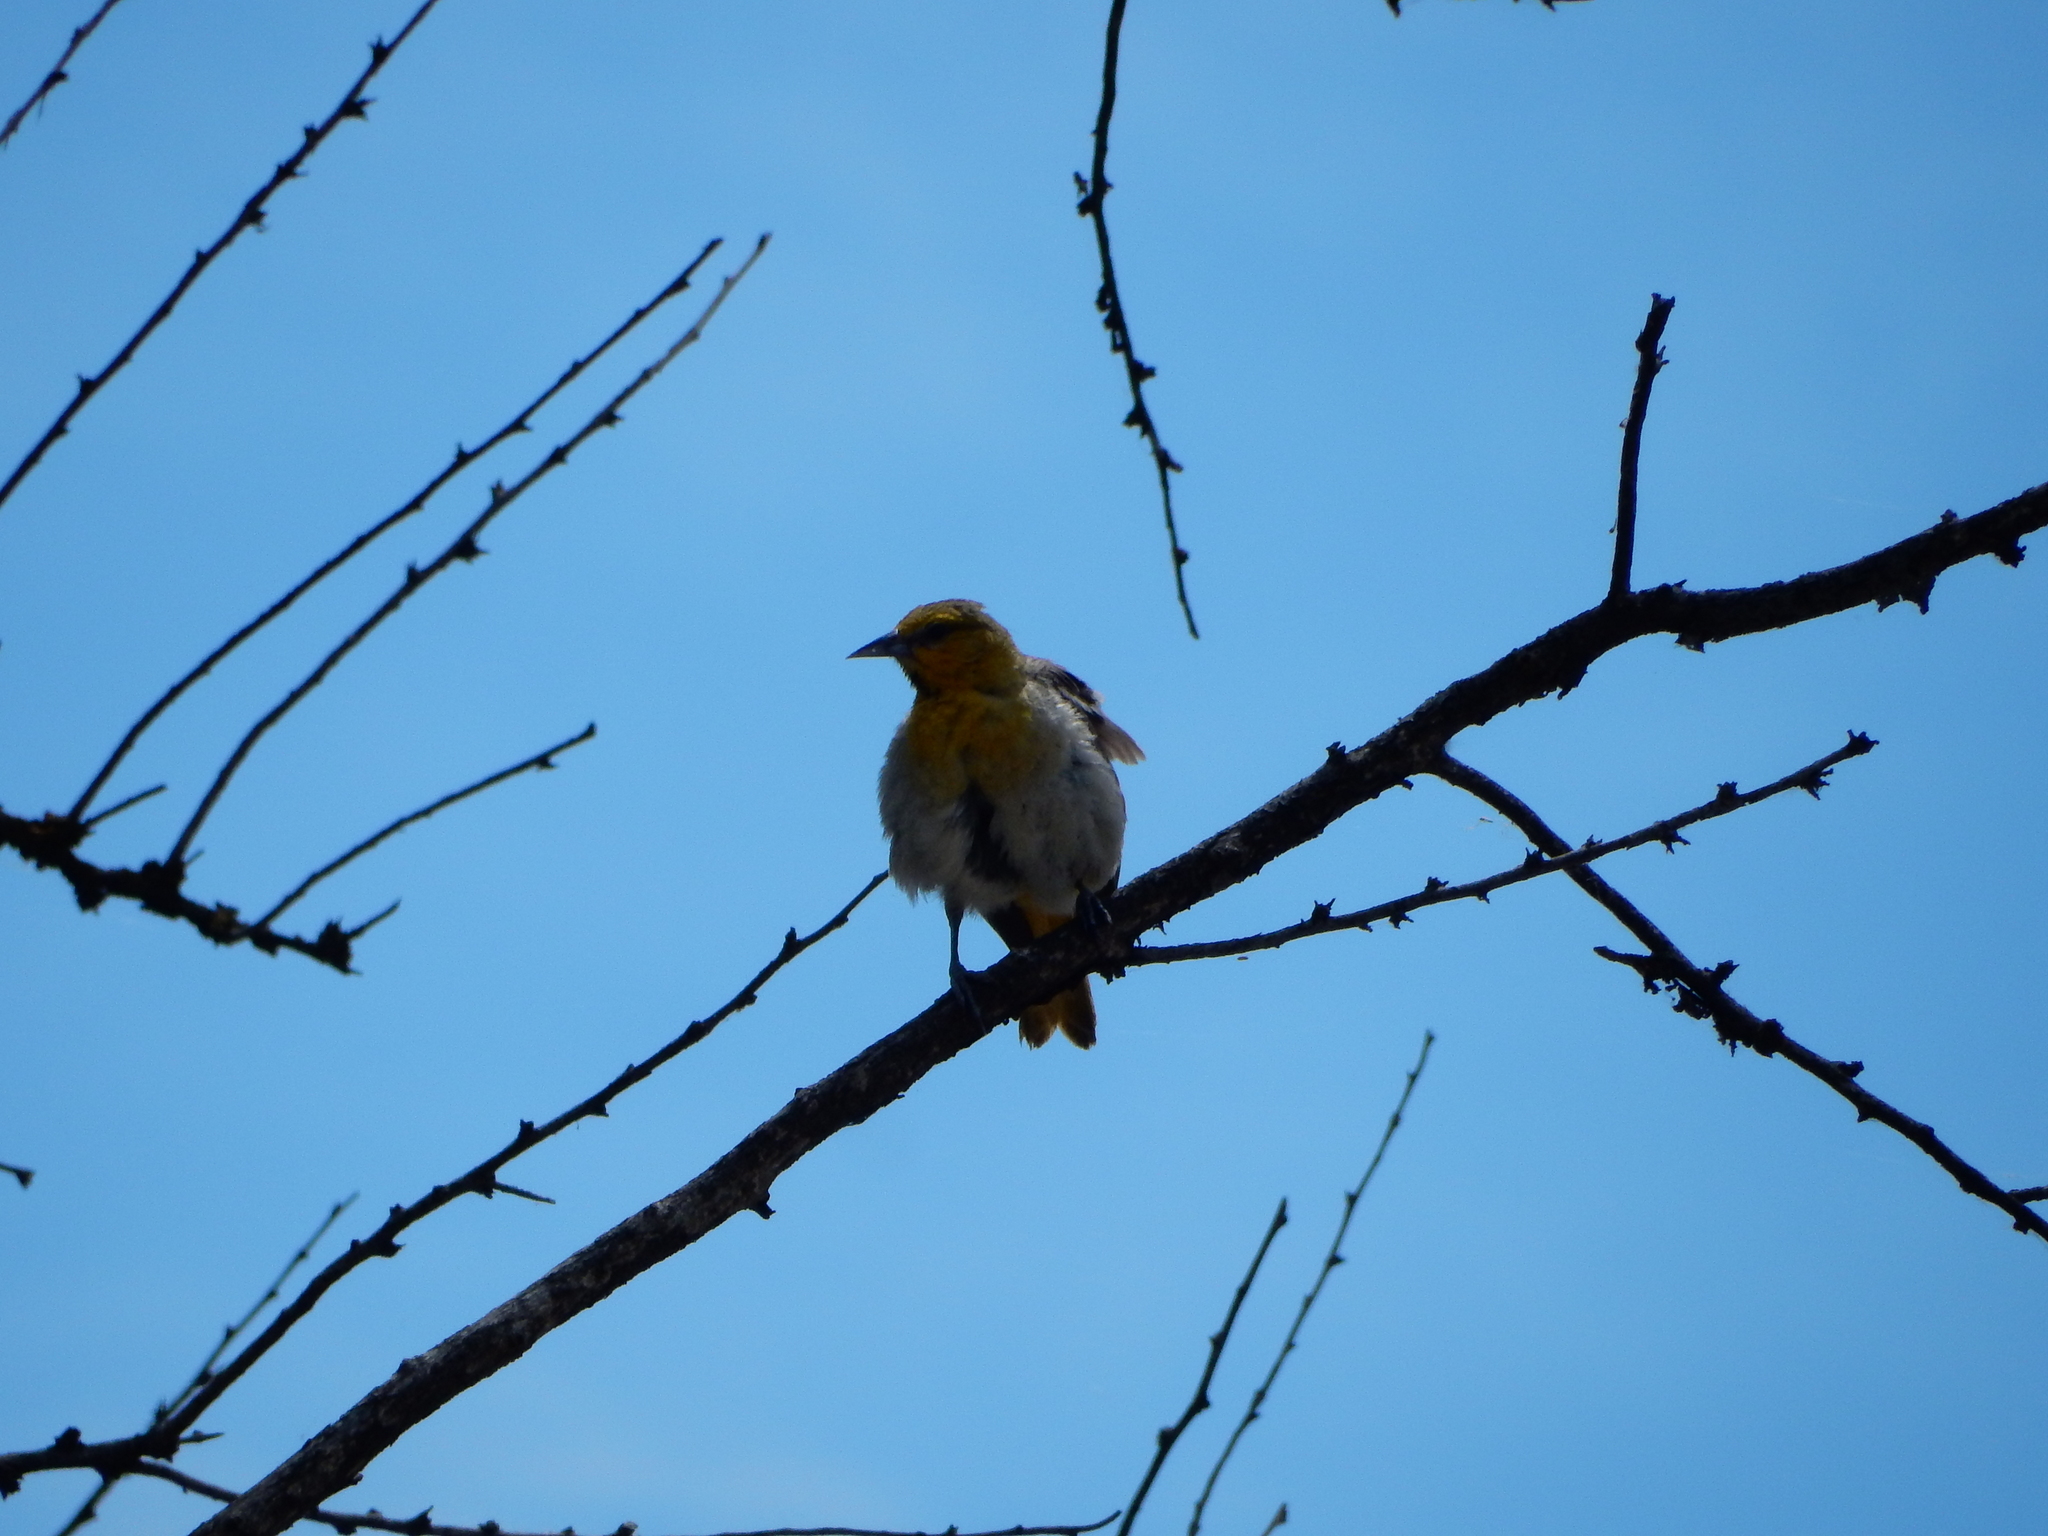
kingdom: Animalia
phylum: Chordata
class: Aves
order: Passeriformes
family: Icteridae
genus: Icterus
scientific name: Icterus bullockii
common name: Bullock's oriole
